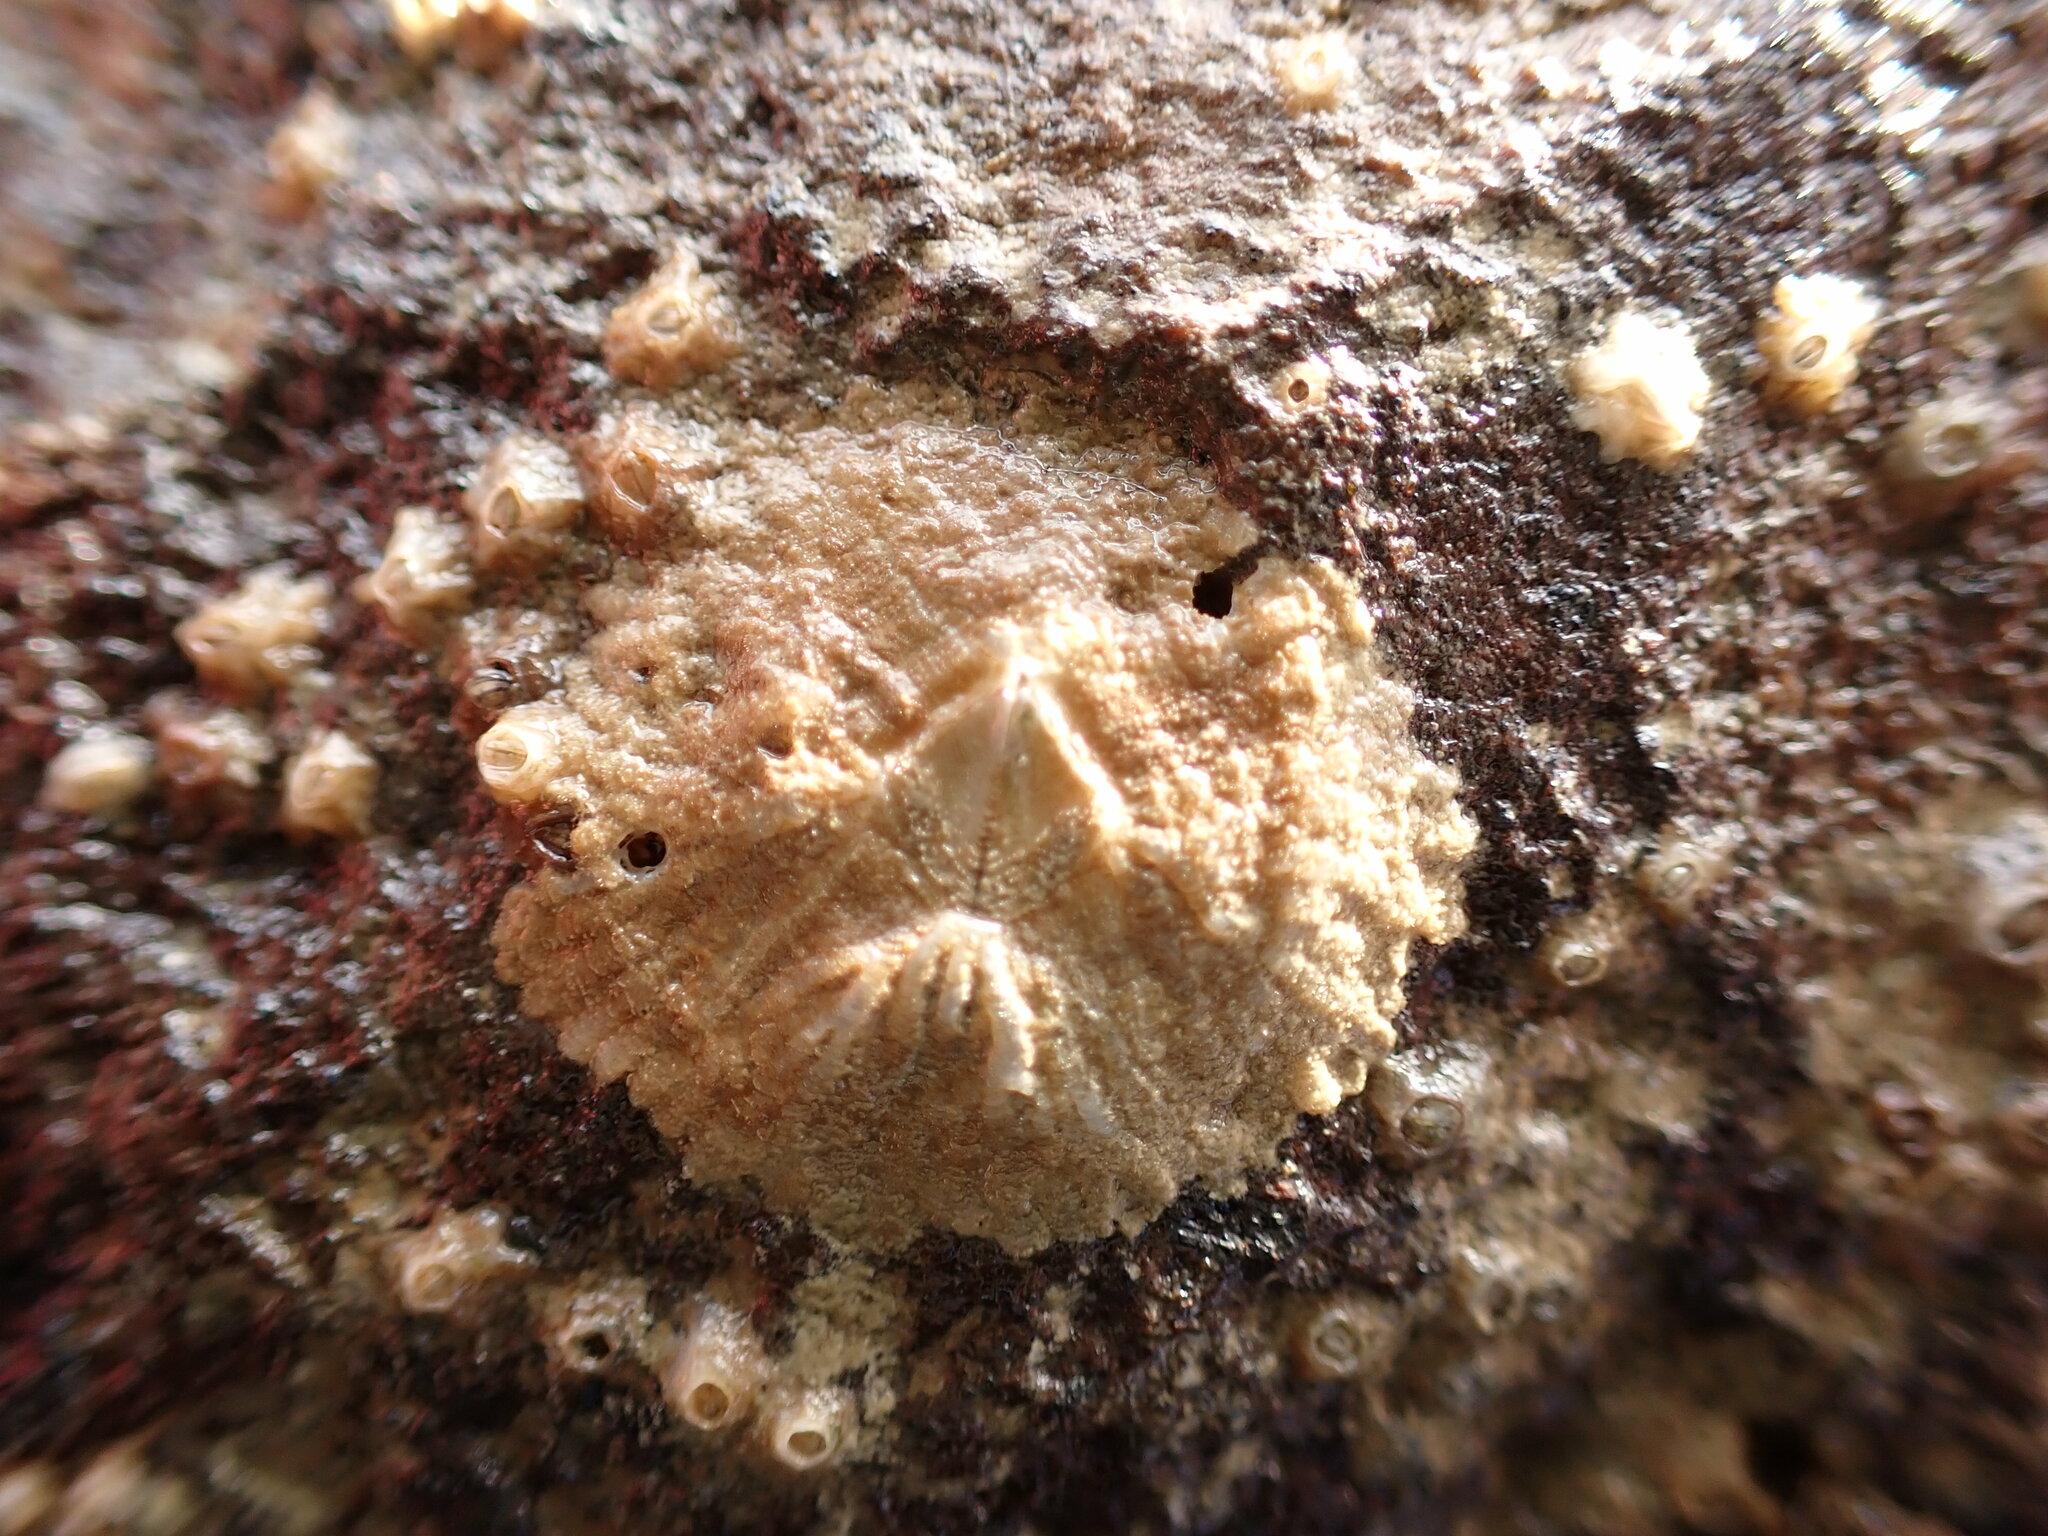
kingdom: Animalia
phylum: Arthropoda
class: Maxillopoda
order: Sessilia
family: Tetraclitidae
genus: Tetraclitella
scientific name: Tetraclitella depressa
